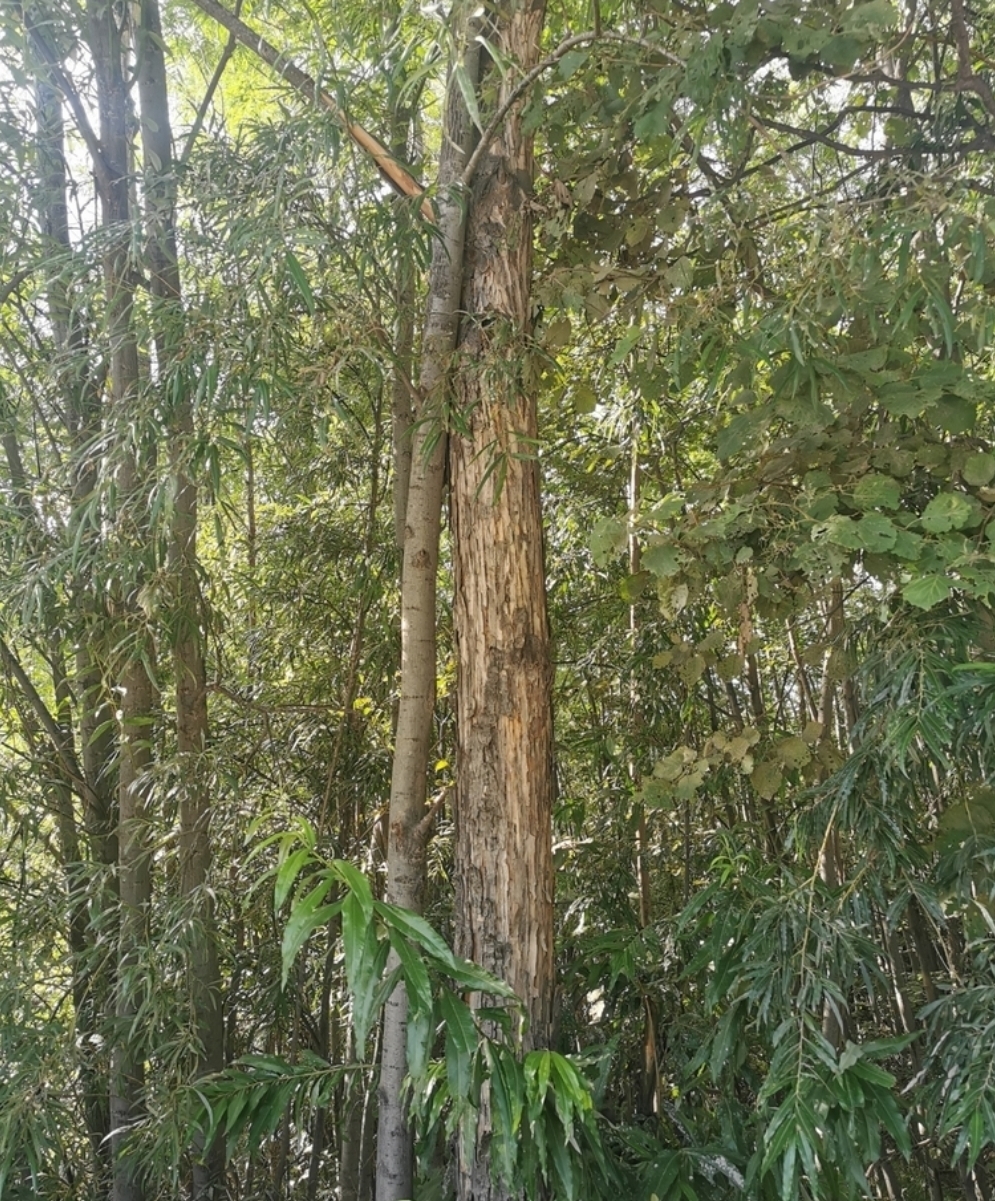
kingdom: Plantae
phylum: Tracheophyta
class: Magnoliopsida
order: Malpighiales
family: Salicaceae
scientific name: Salicaceae
